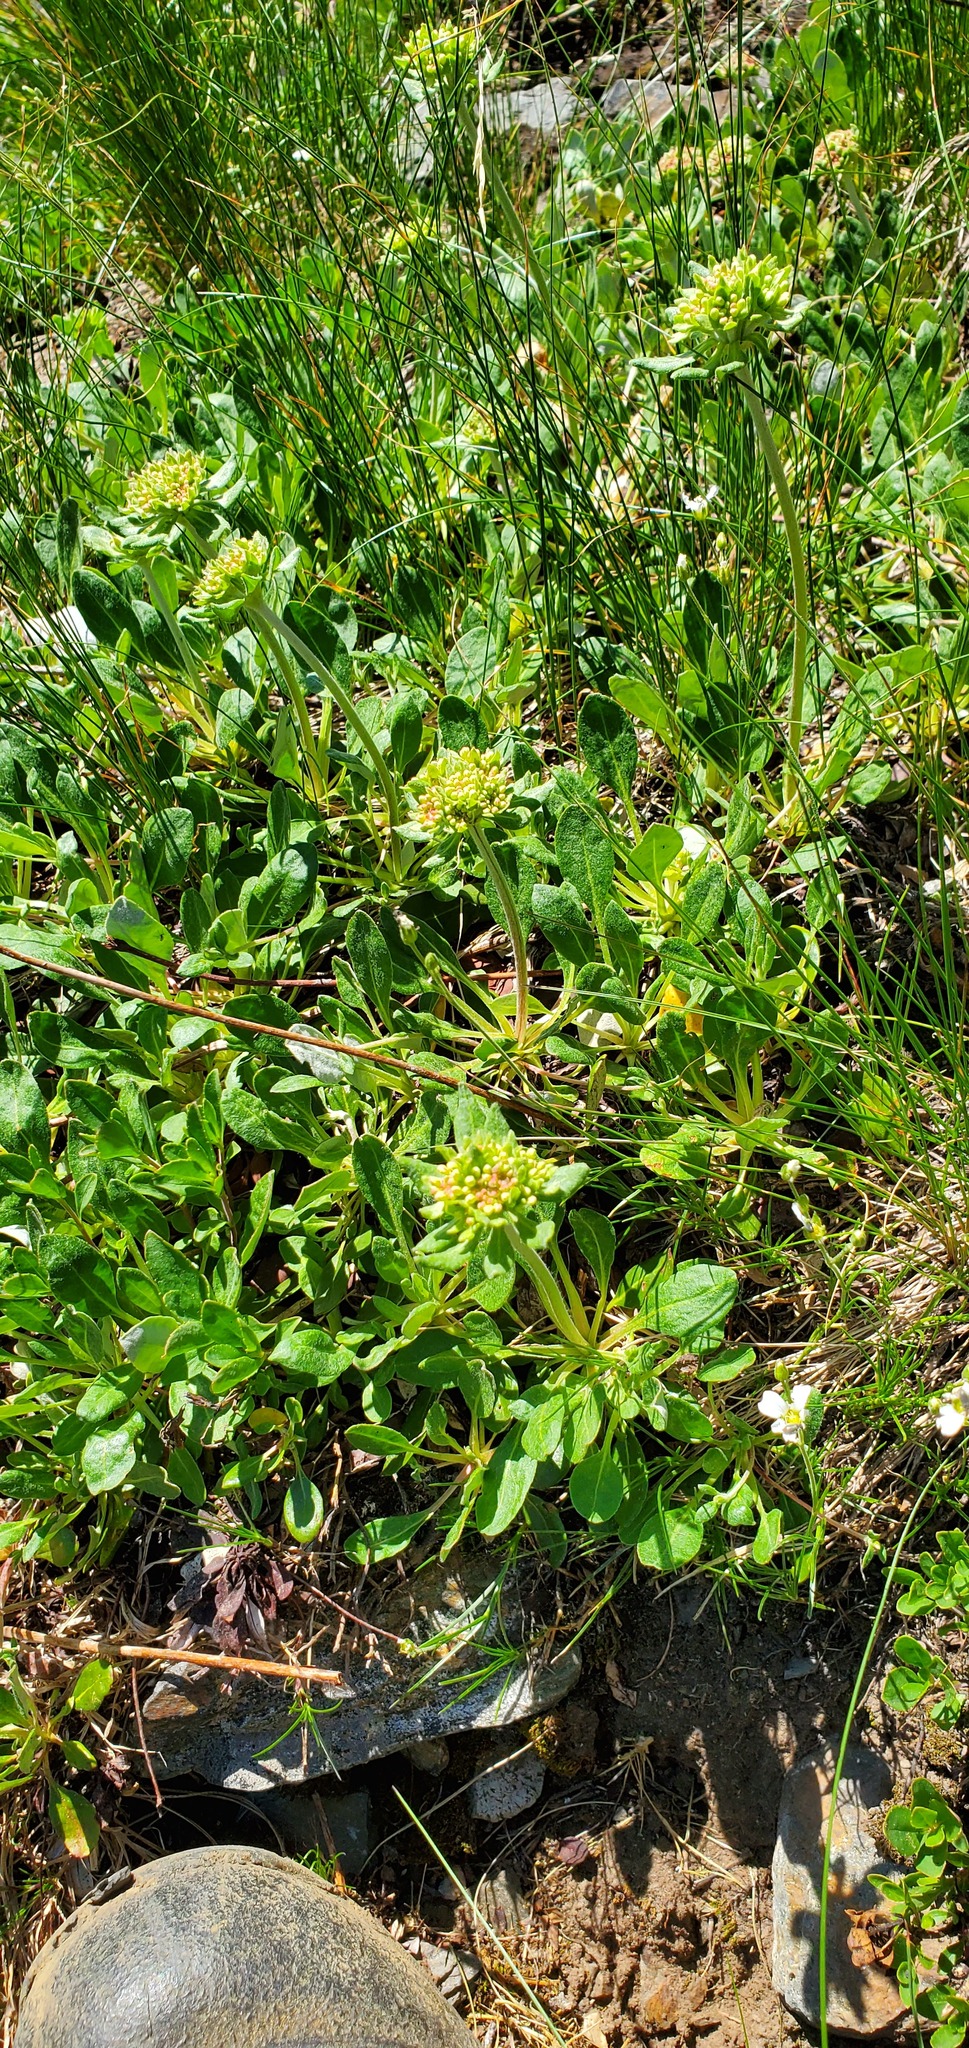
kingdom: Plantae
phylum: Tracheophyta
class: Magnoliopsida
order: Caryophyllales
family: Polygonaceae
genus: Eriogonum
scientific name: Eriogonum umbellatum
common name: Sulfur-buckwheat
